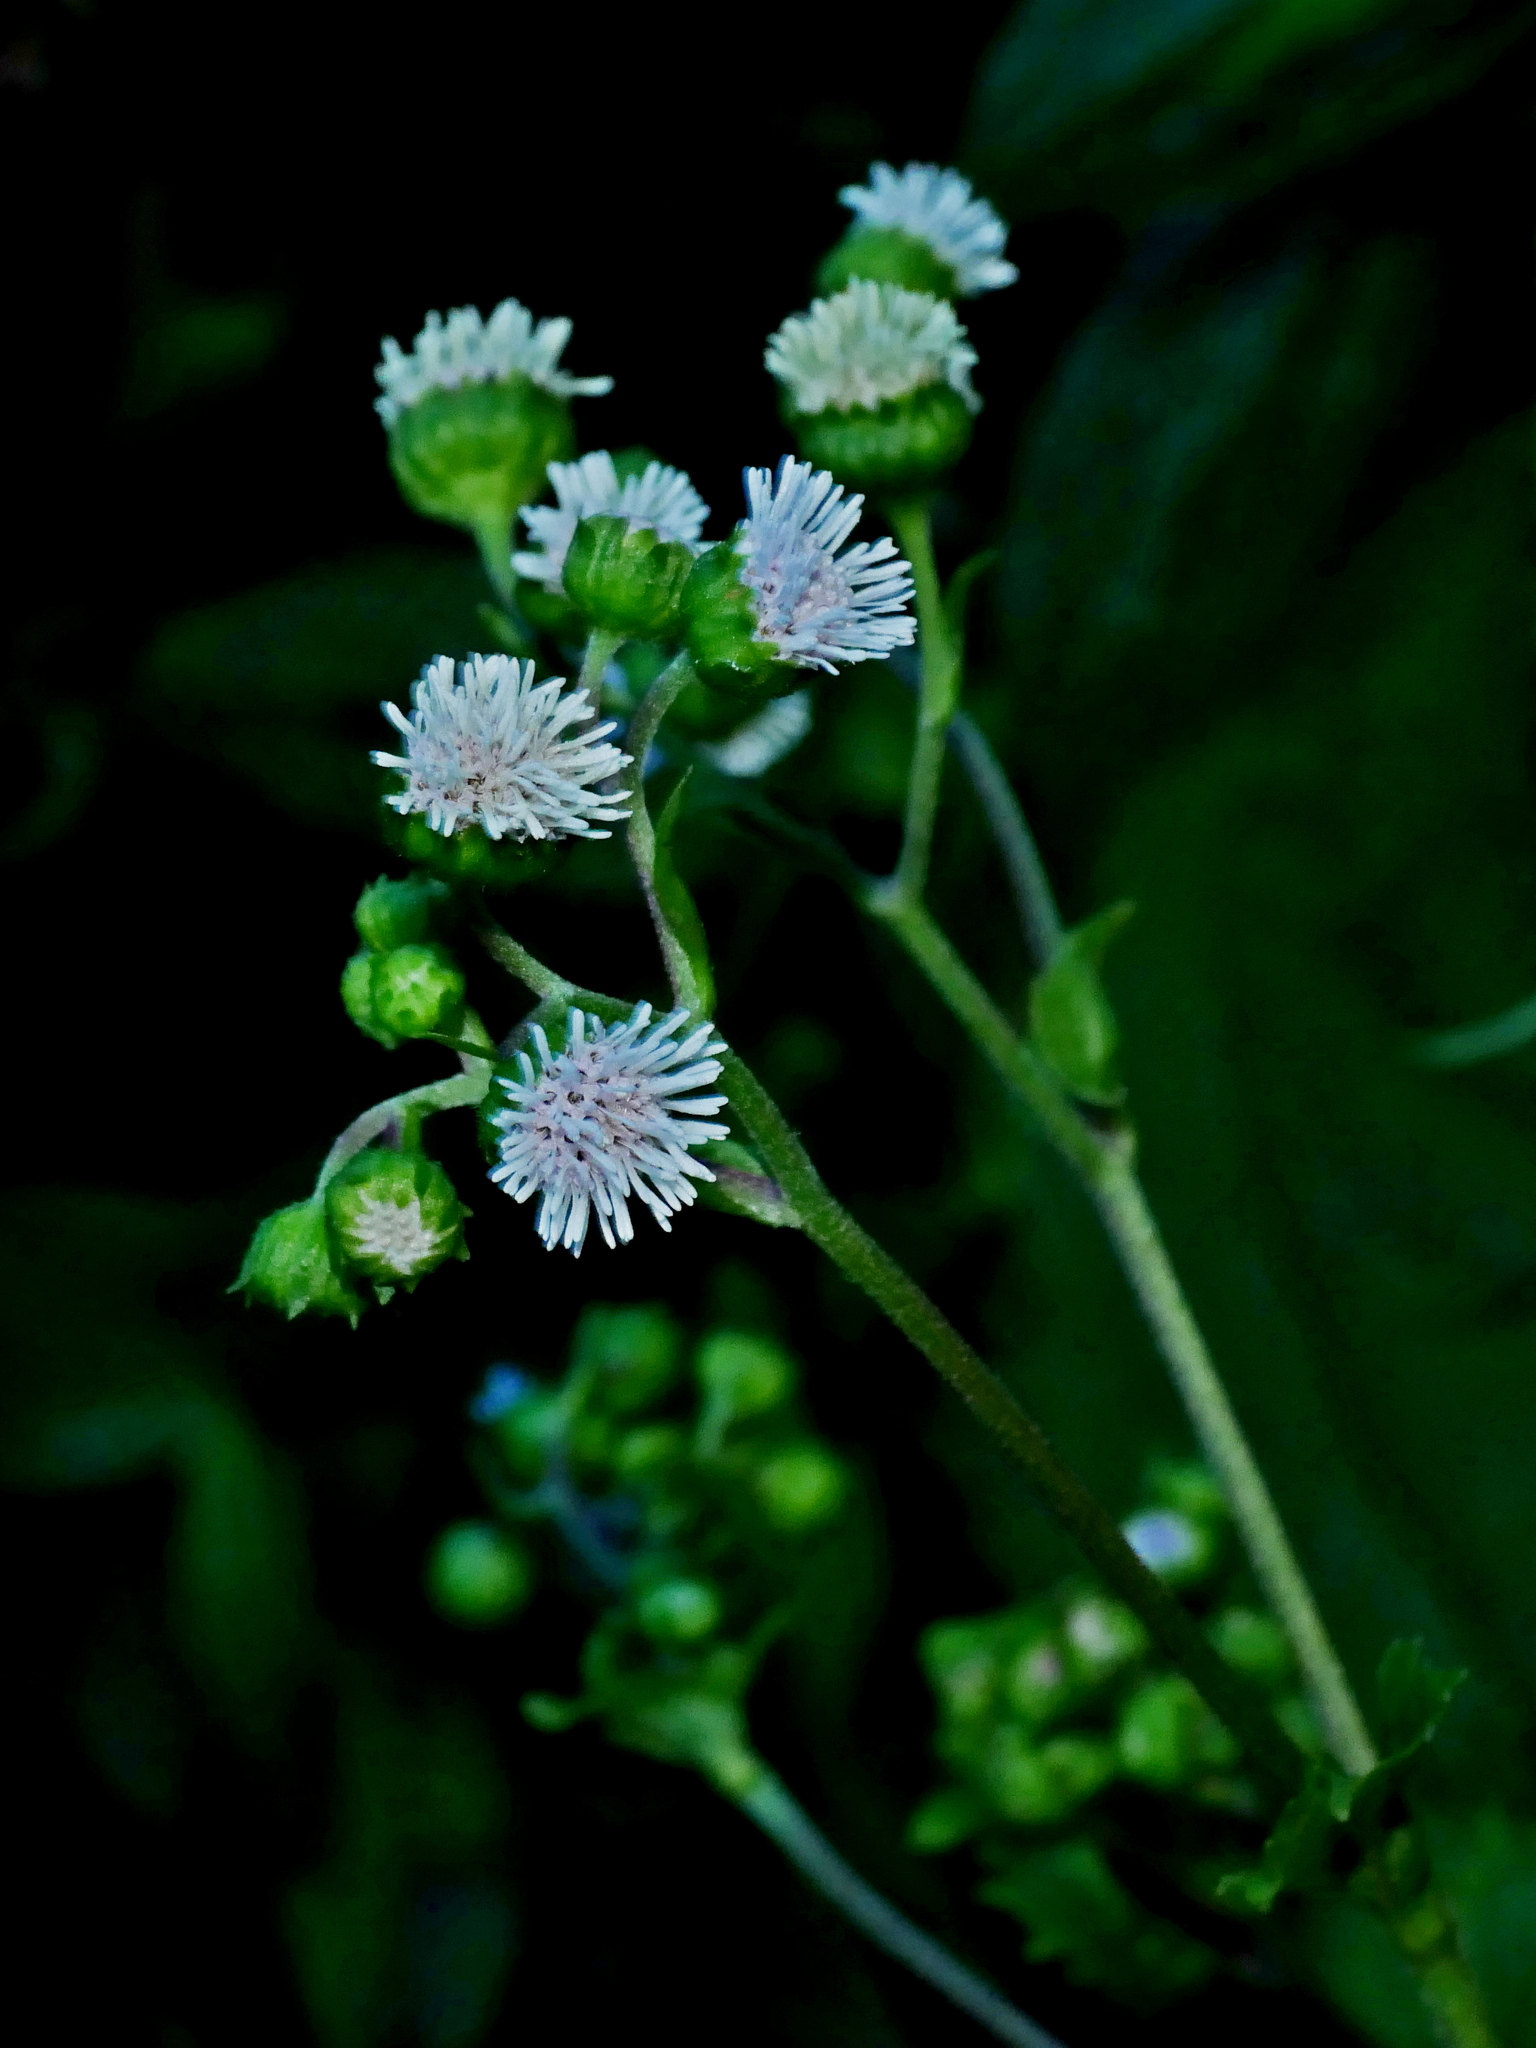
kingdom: Plantae
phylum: Tracheophyta
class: Magnoliopsida
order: Asterales
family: Asteraceae
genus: Adenostemma
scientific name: Adenostemma lavenia
